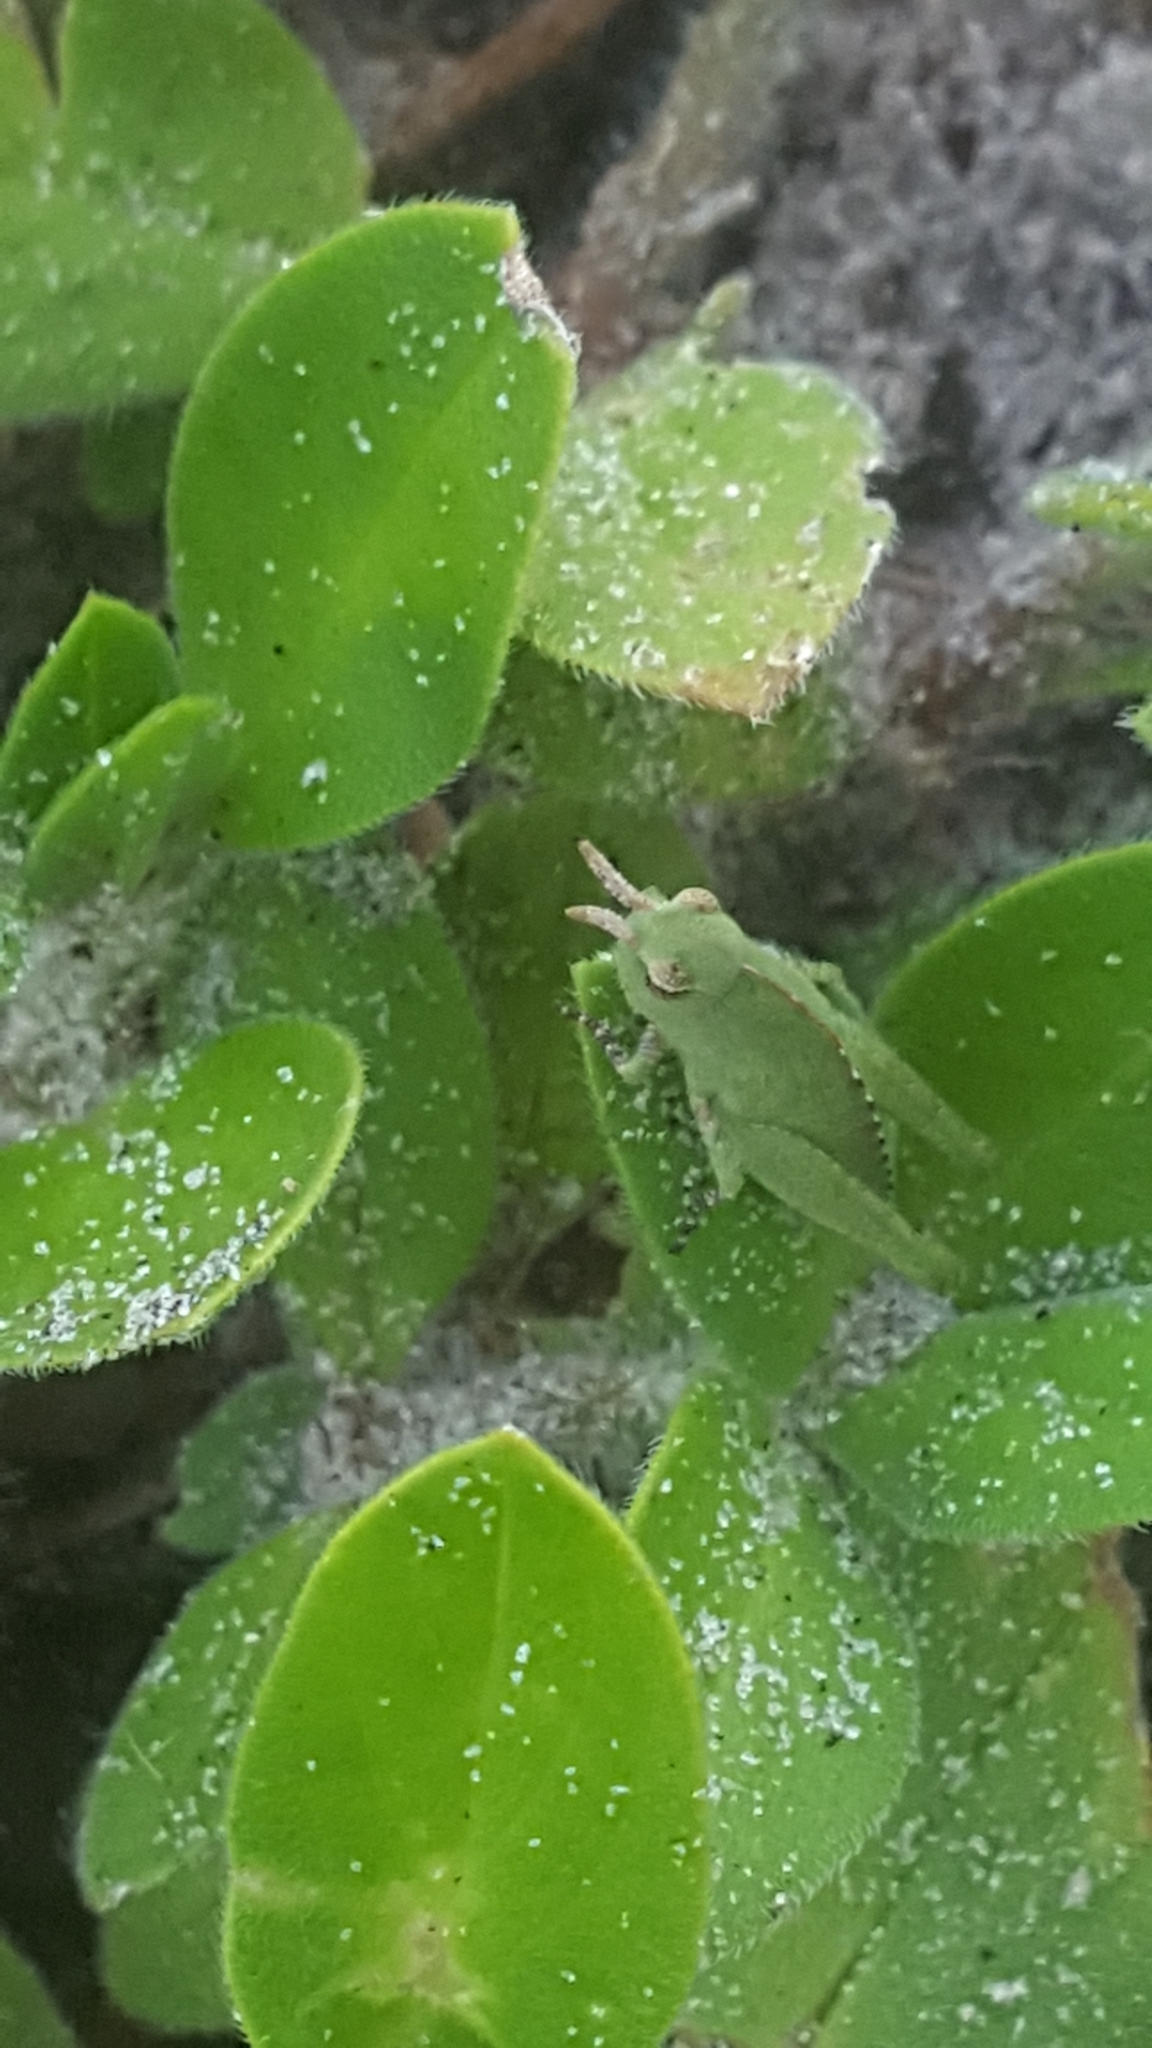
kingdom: Animalia
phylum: Arthropoda
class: Insecta
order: Orthoptera
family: Acrididae
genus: Chortophaga
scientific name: Chortophaga australior
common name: Southern green-striped grasshopper
